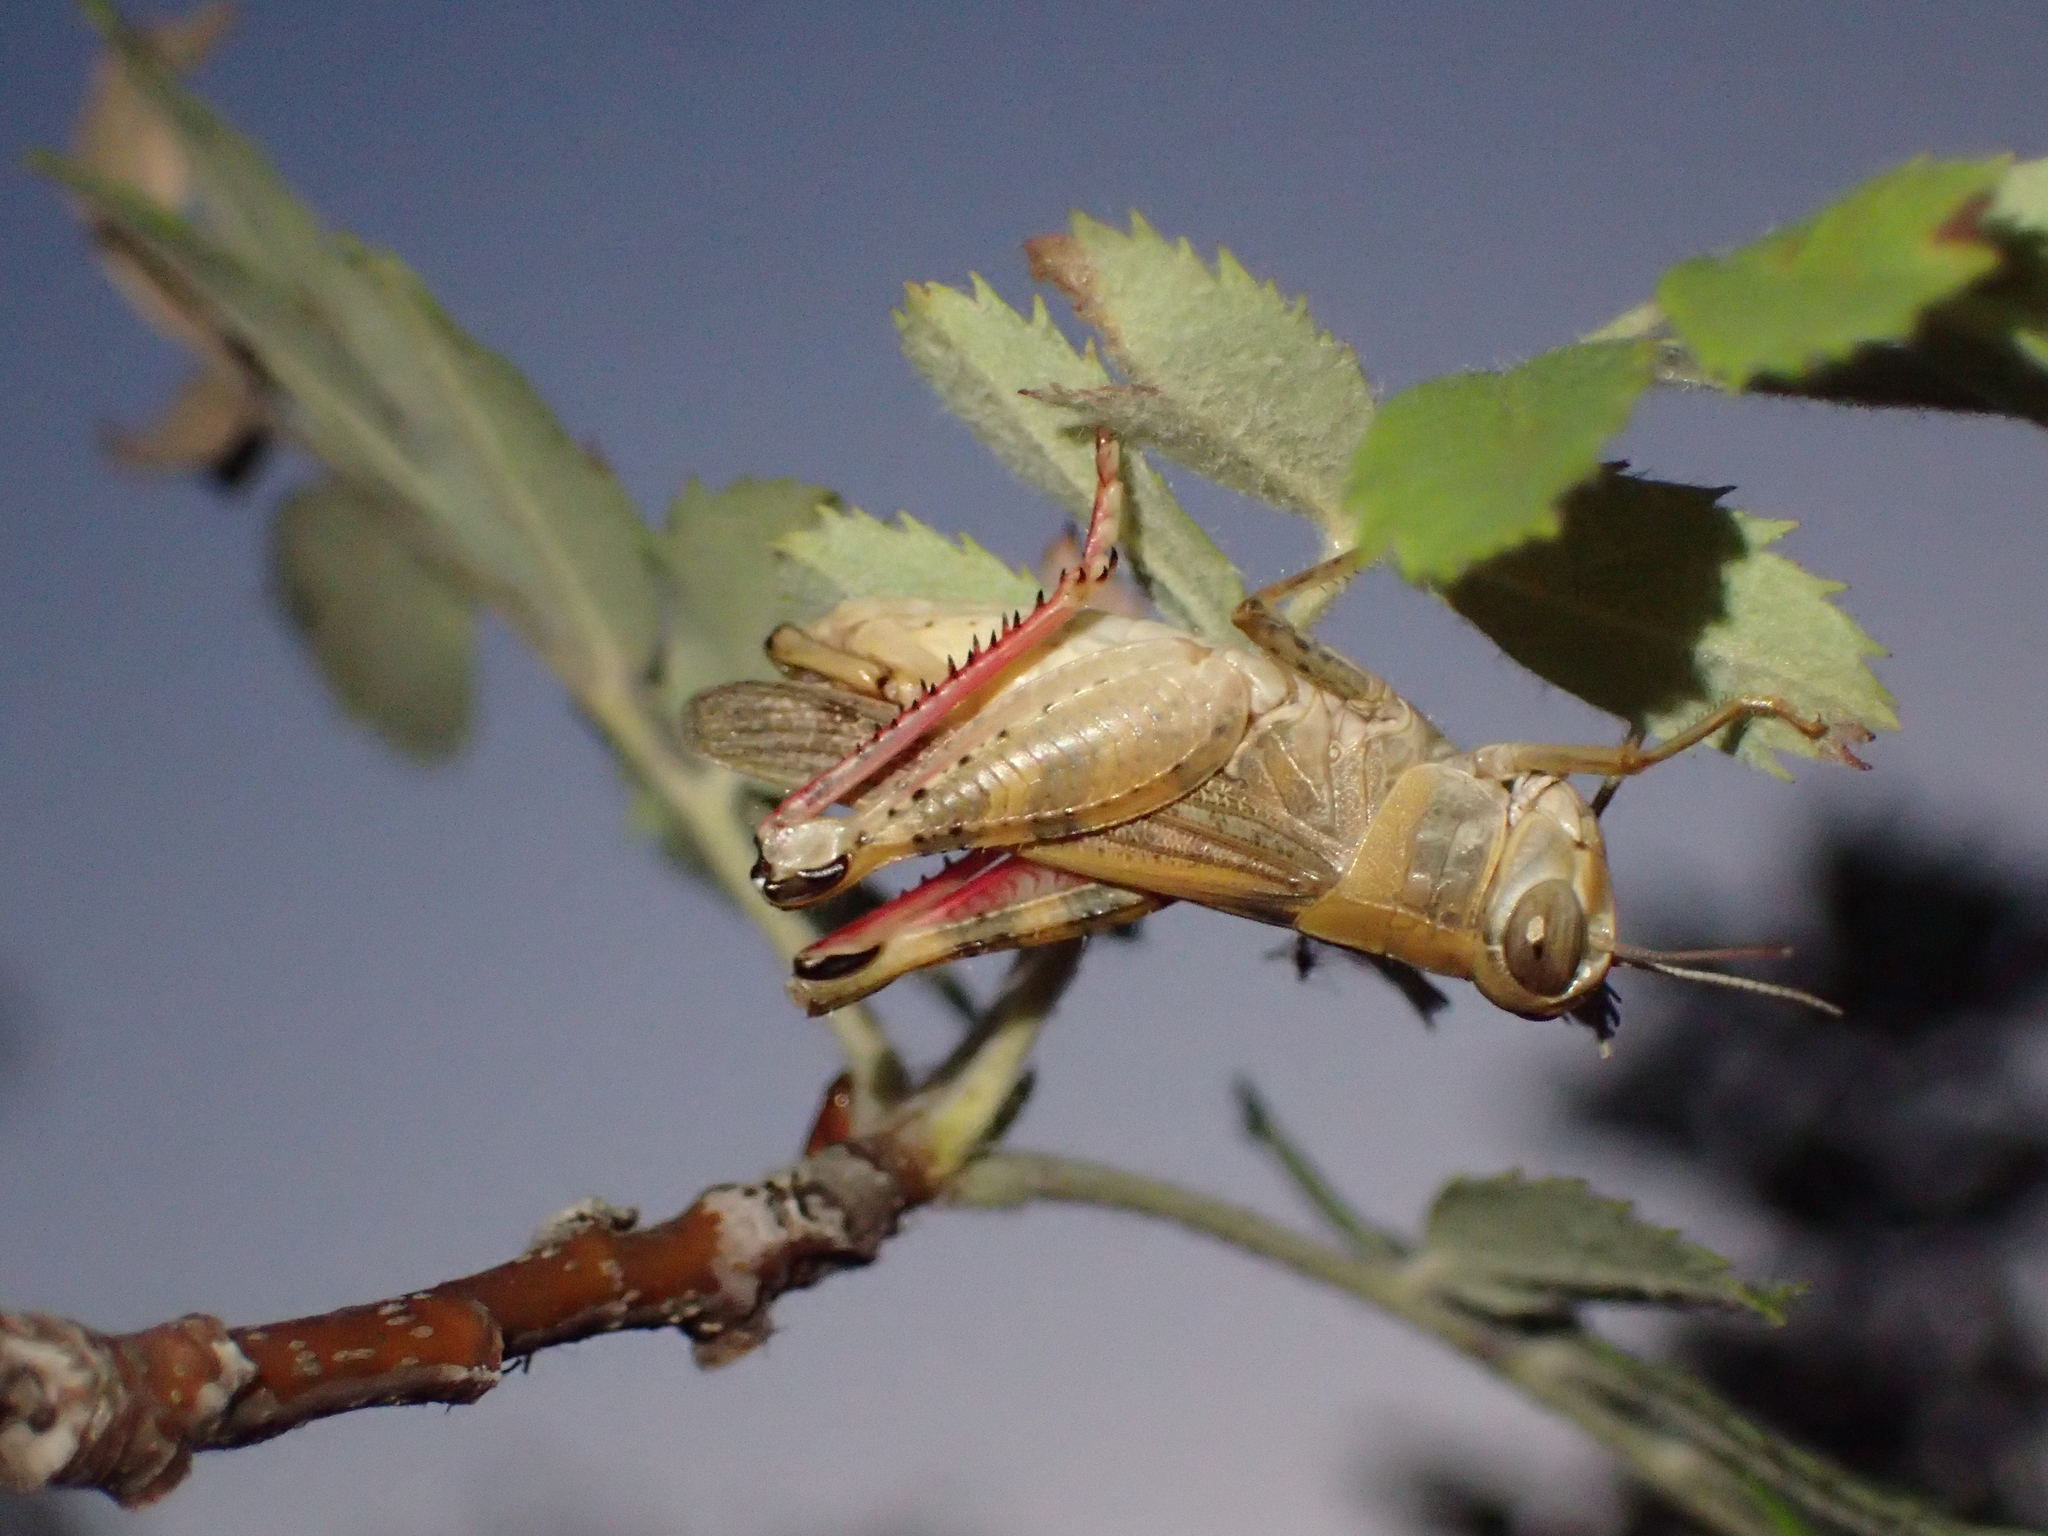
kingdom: Animalia
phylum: Arthropoda
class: Insecta
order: Orthoptera
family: Acrididae
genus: Calliptamus
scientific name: Calliptamus italicus
